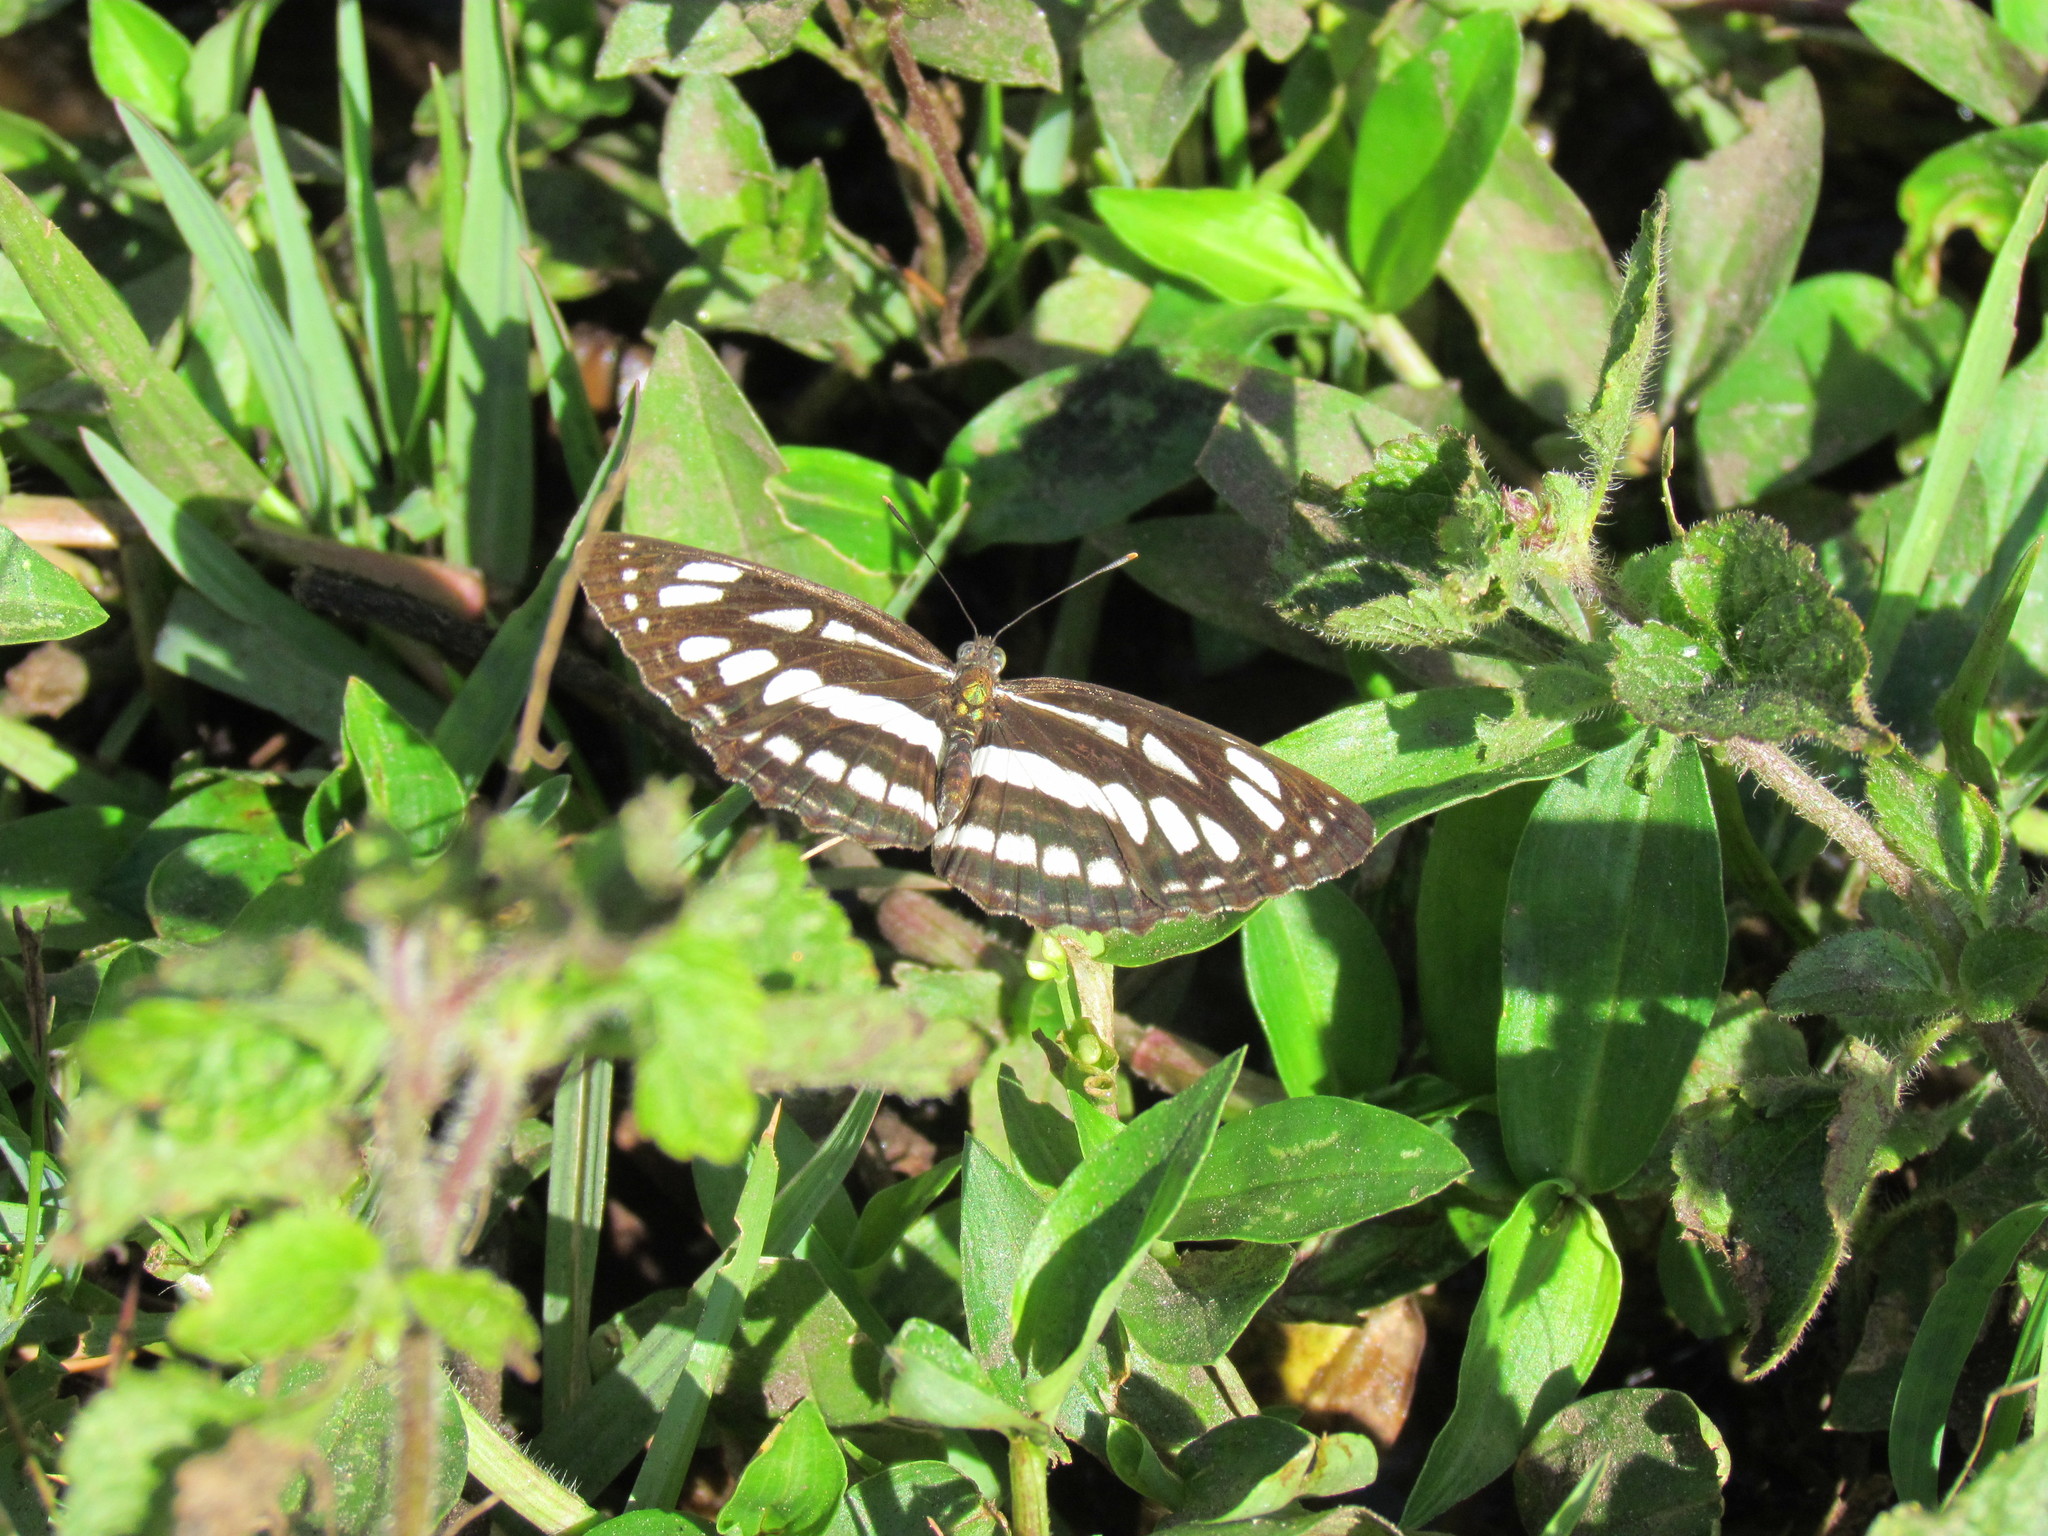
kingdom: Animalia
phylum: Arthropoda
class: Insecta
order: Lepidoptera
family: Nymphalidae
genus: Neptis
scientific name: Neptis hylas
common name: Common sailer
